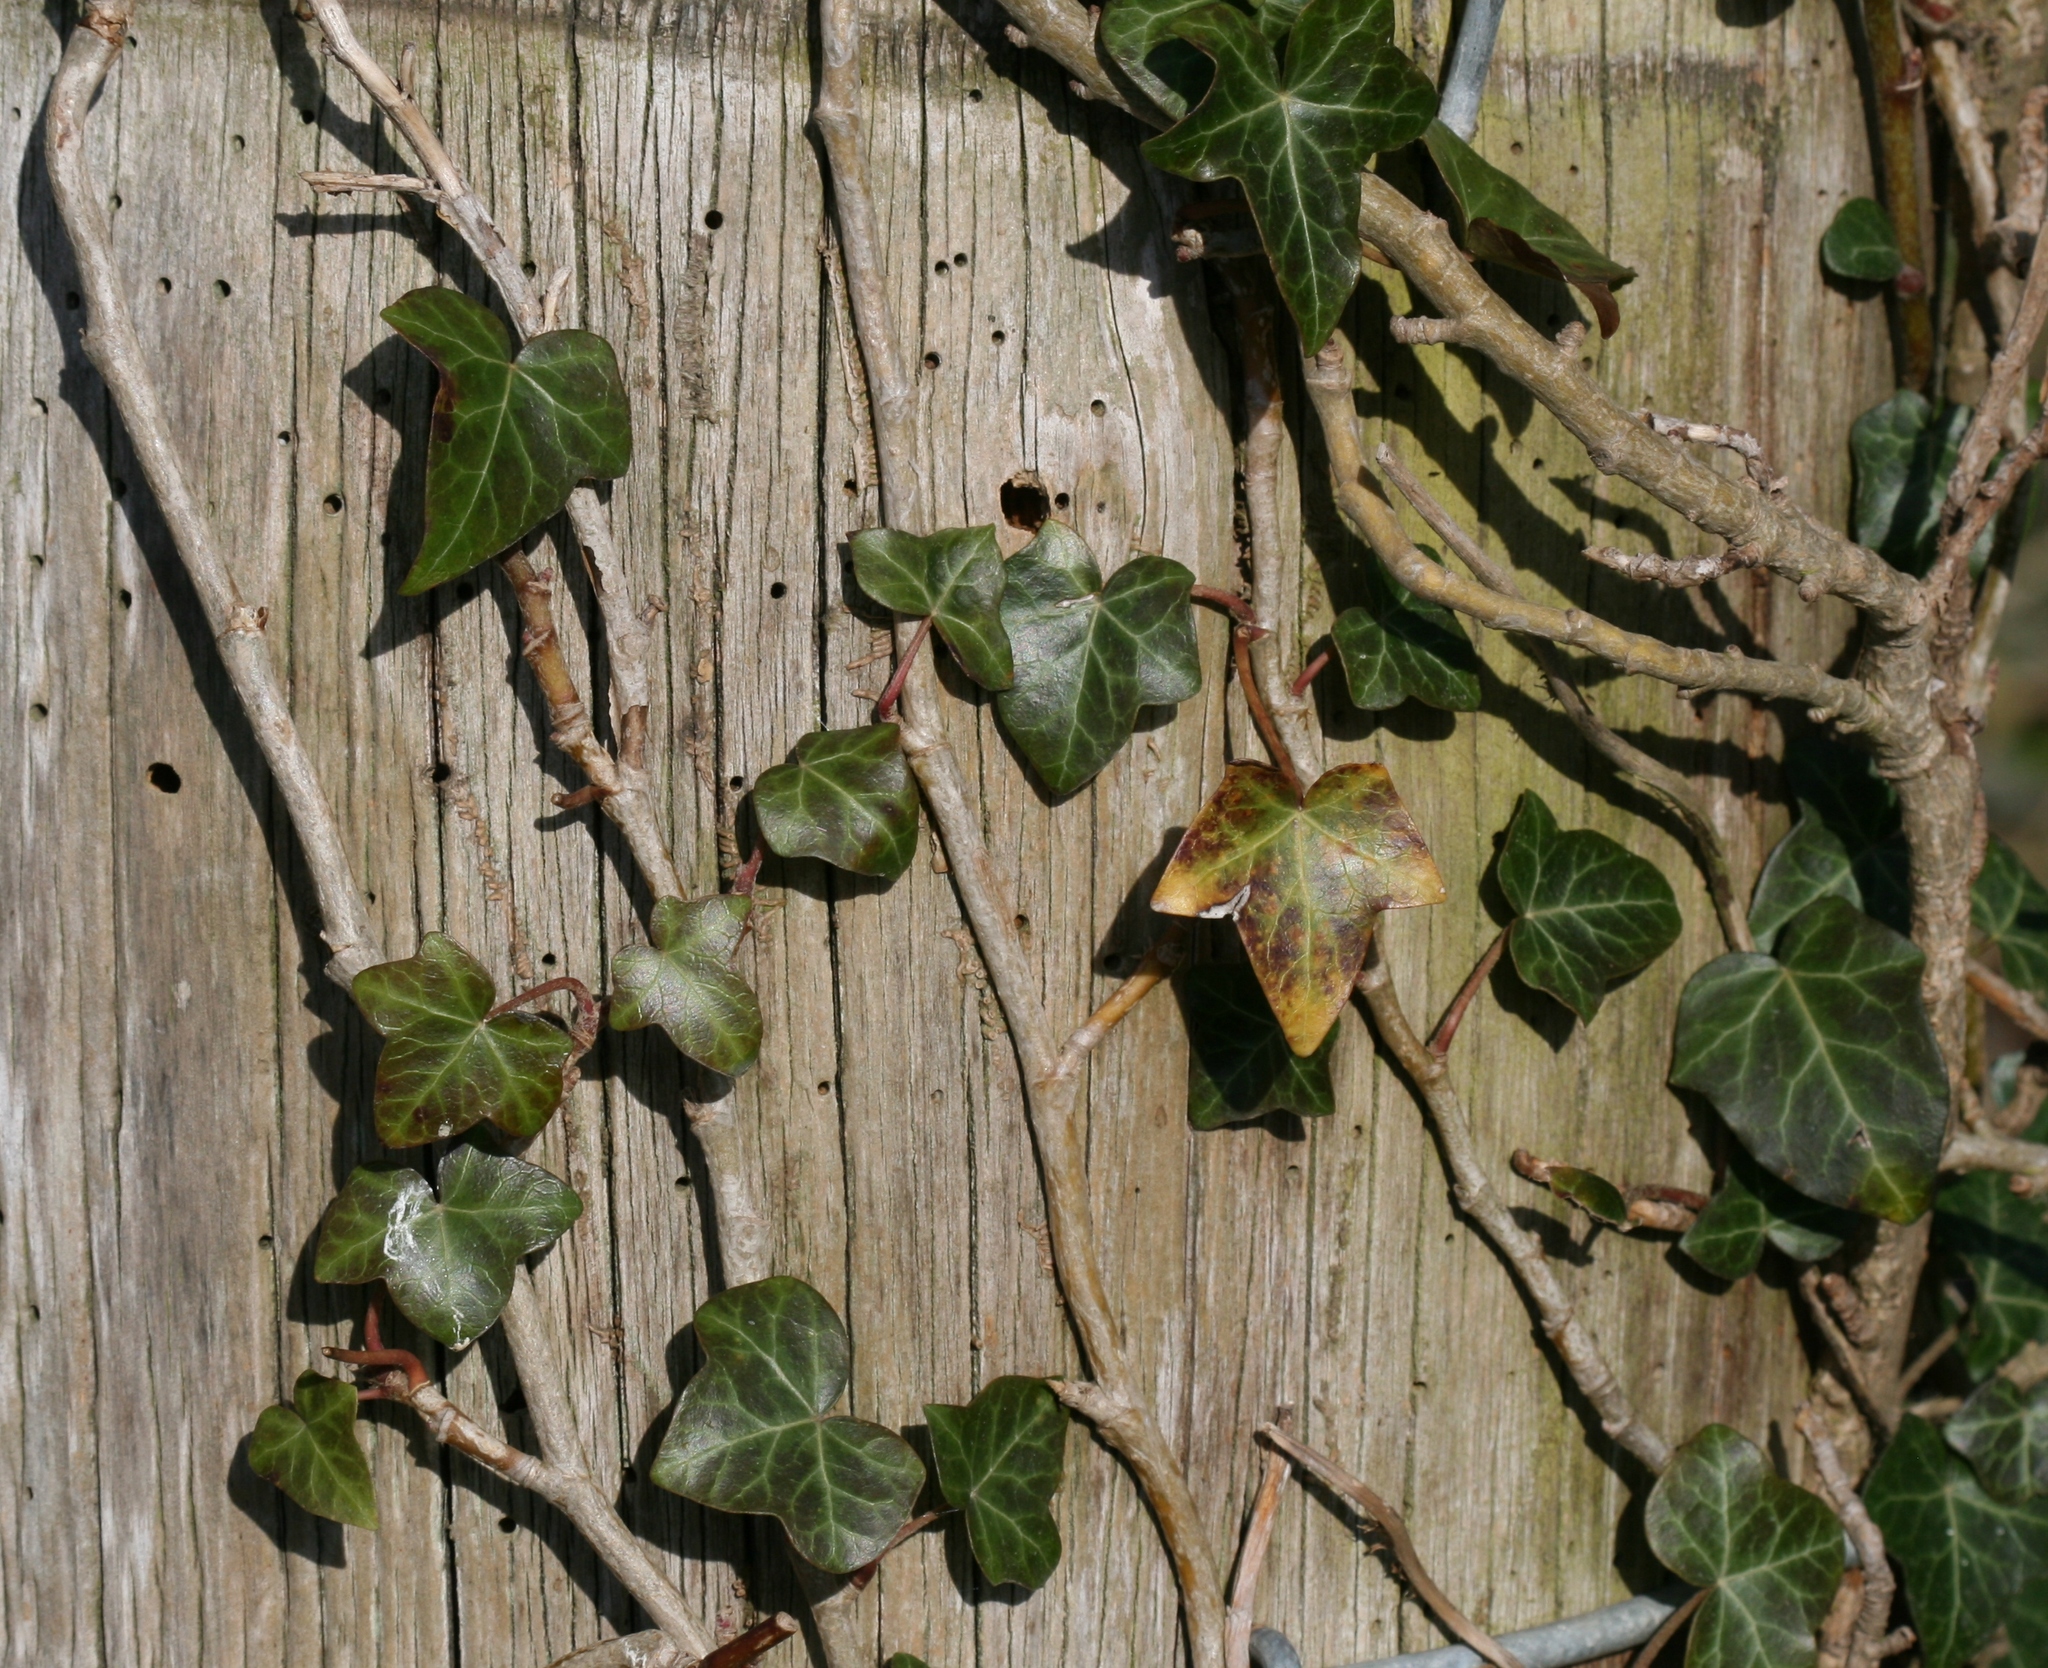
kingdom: Plantae
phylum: Tracheophyta
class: Magnoliopsida
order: Apiales
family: Araliaceae
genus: Hedera
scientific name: Hedera helix
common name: Ivy
